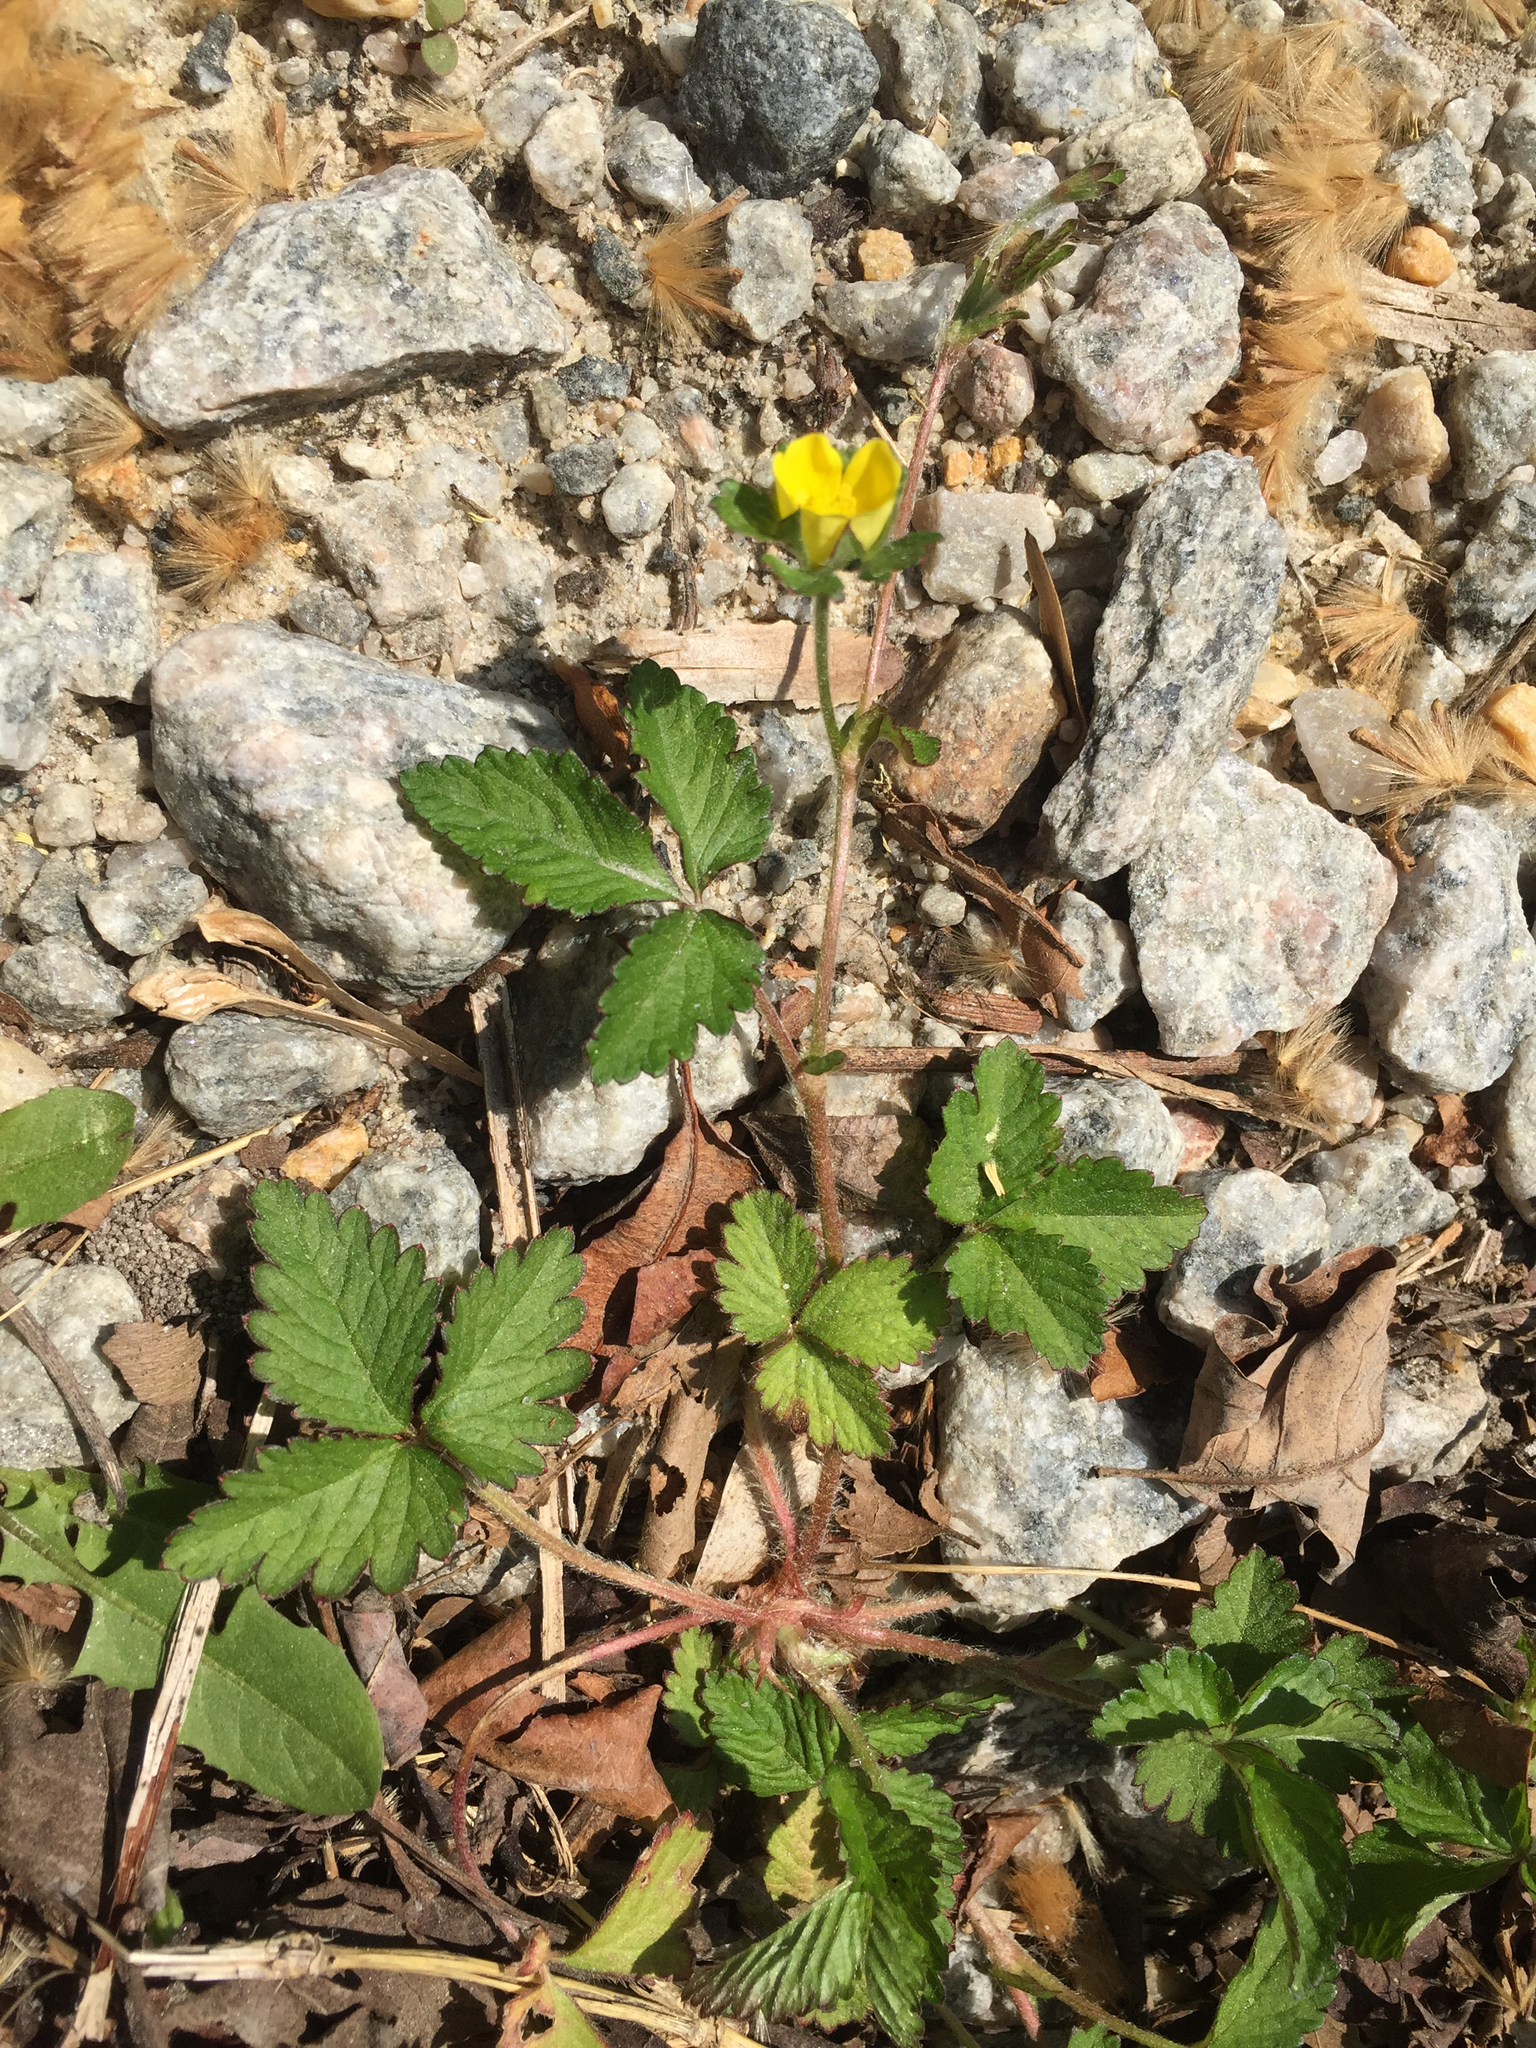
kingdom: Plantae
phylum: Tracheophyta
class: Magnoliopsida
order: Rosales
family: Rosaceae
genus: Potentilla
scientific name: Potentilla indica
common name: Yellow-flowered strawberry
